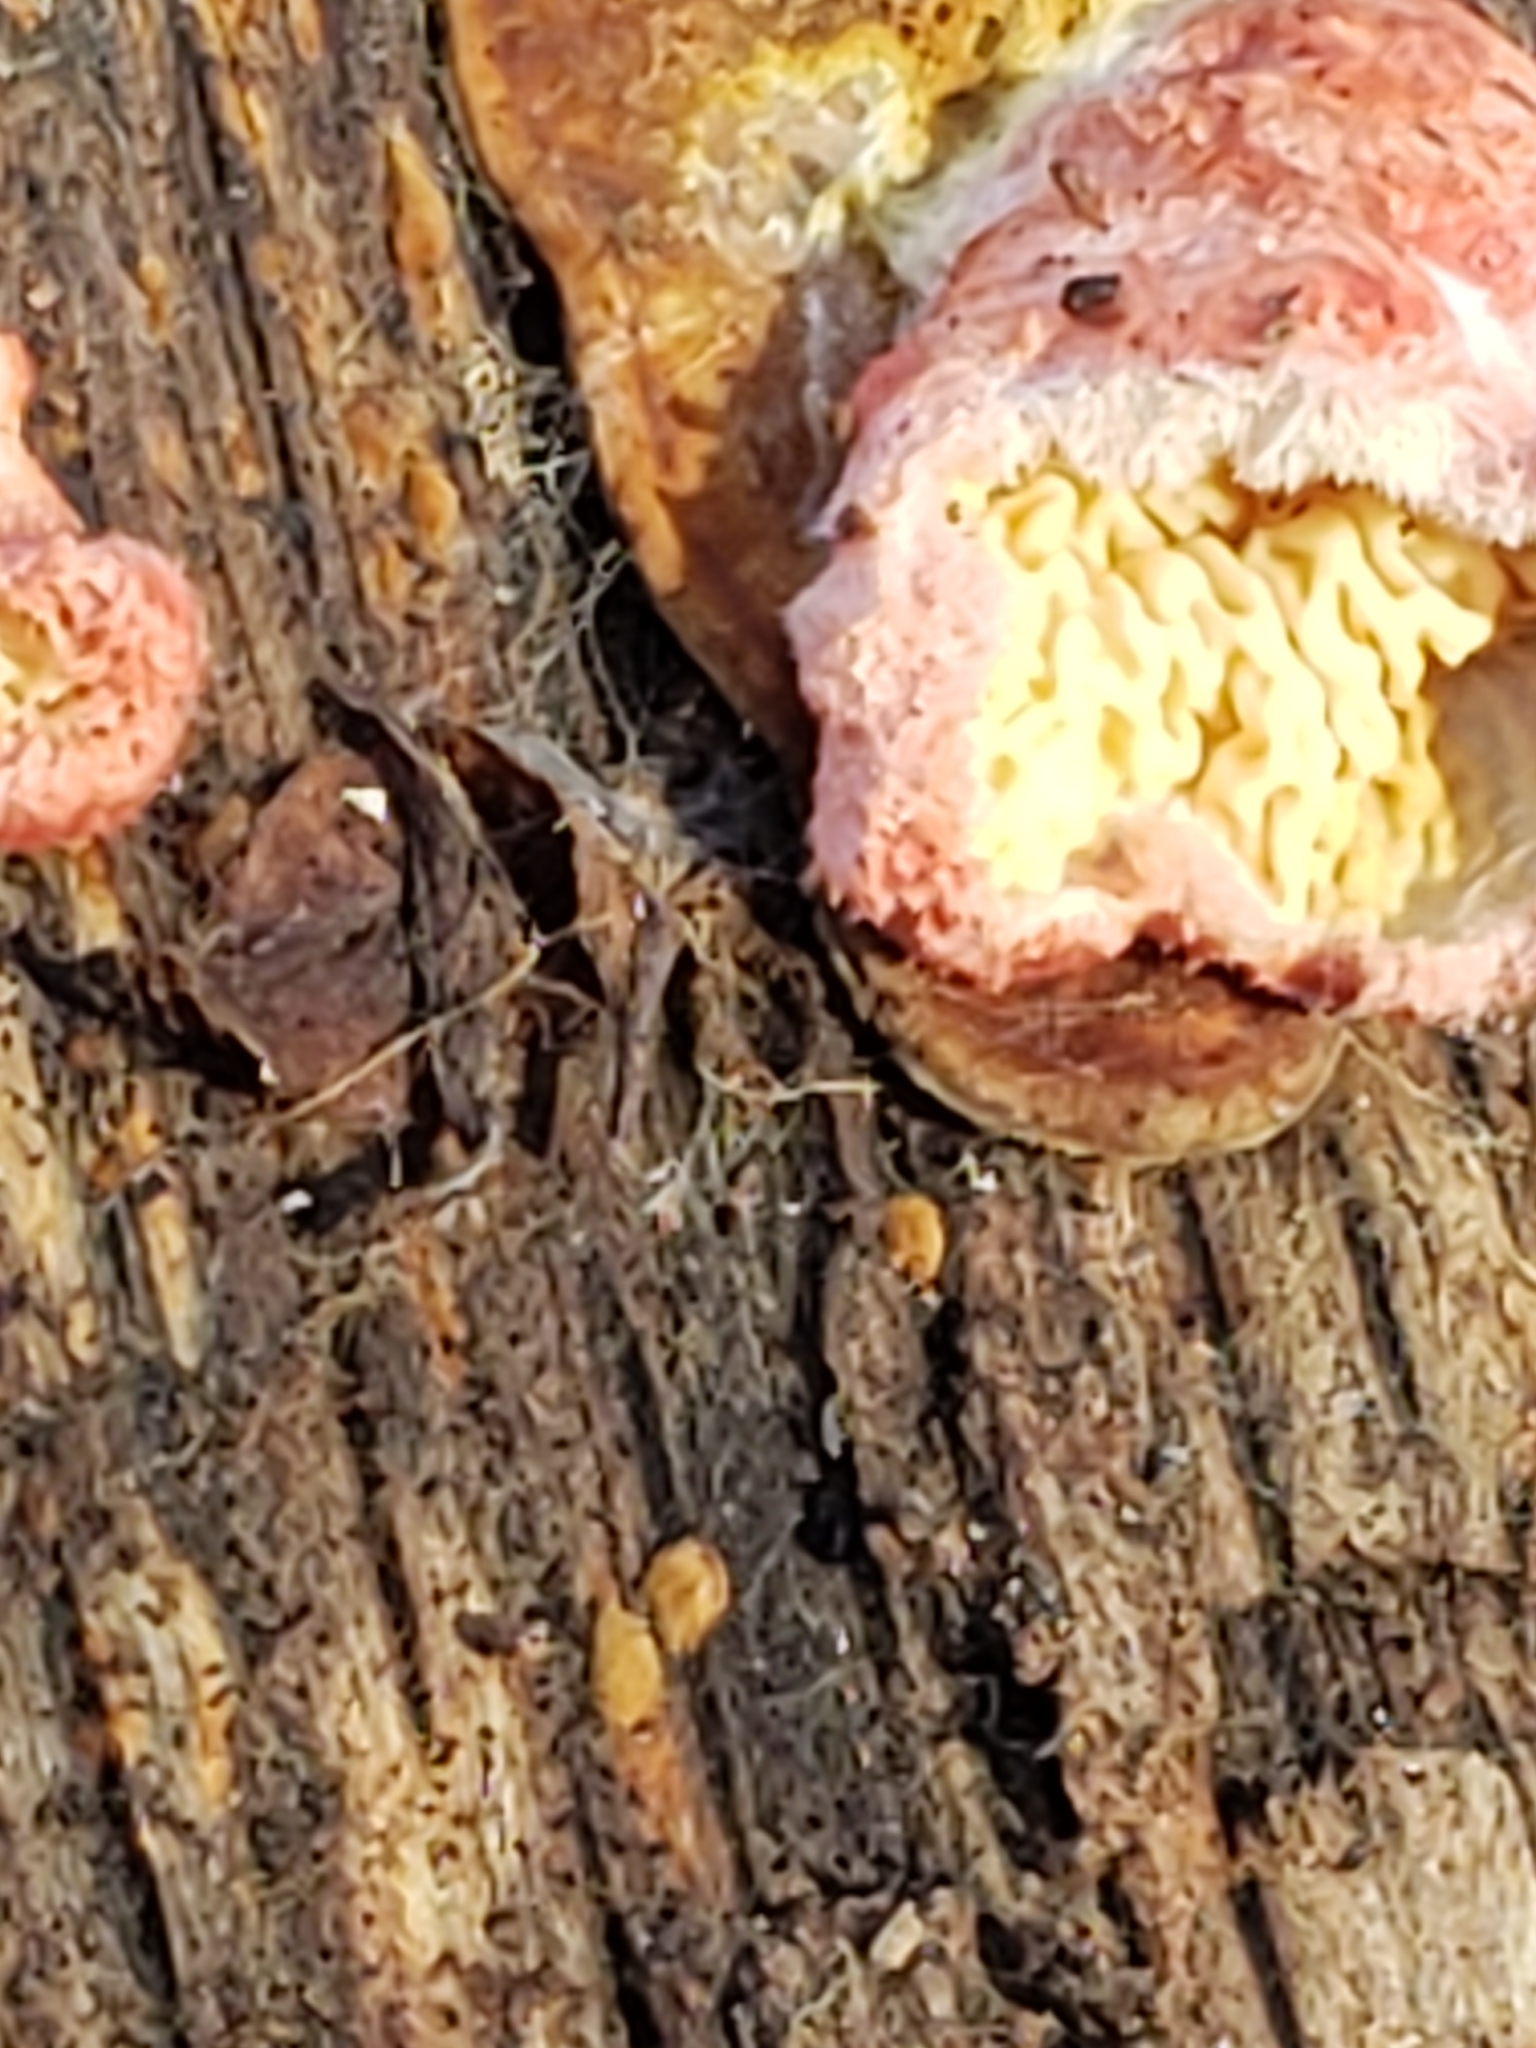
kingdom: Fungi
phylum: Basidiomycota
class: Agaricomycetes
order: Polyporales
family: Irpicaceae
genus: Byssomerulius
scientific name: Byssomerulius incarnatus
